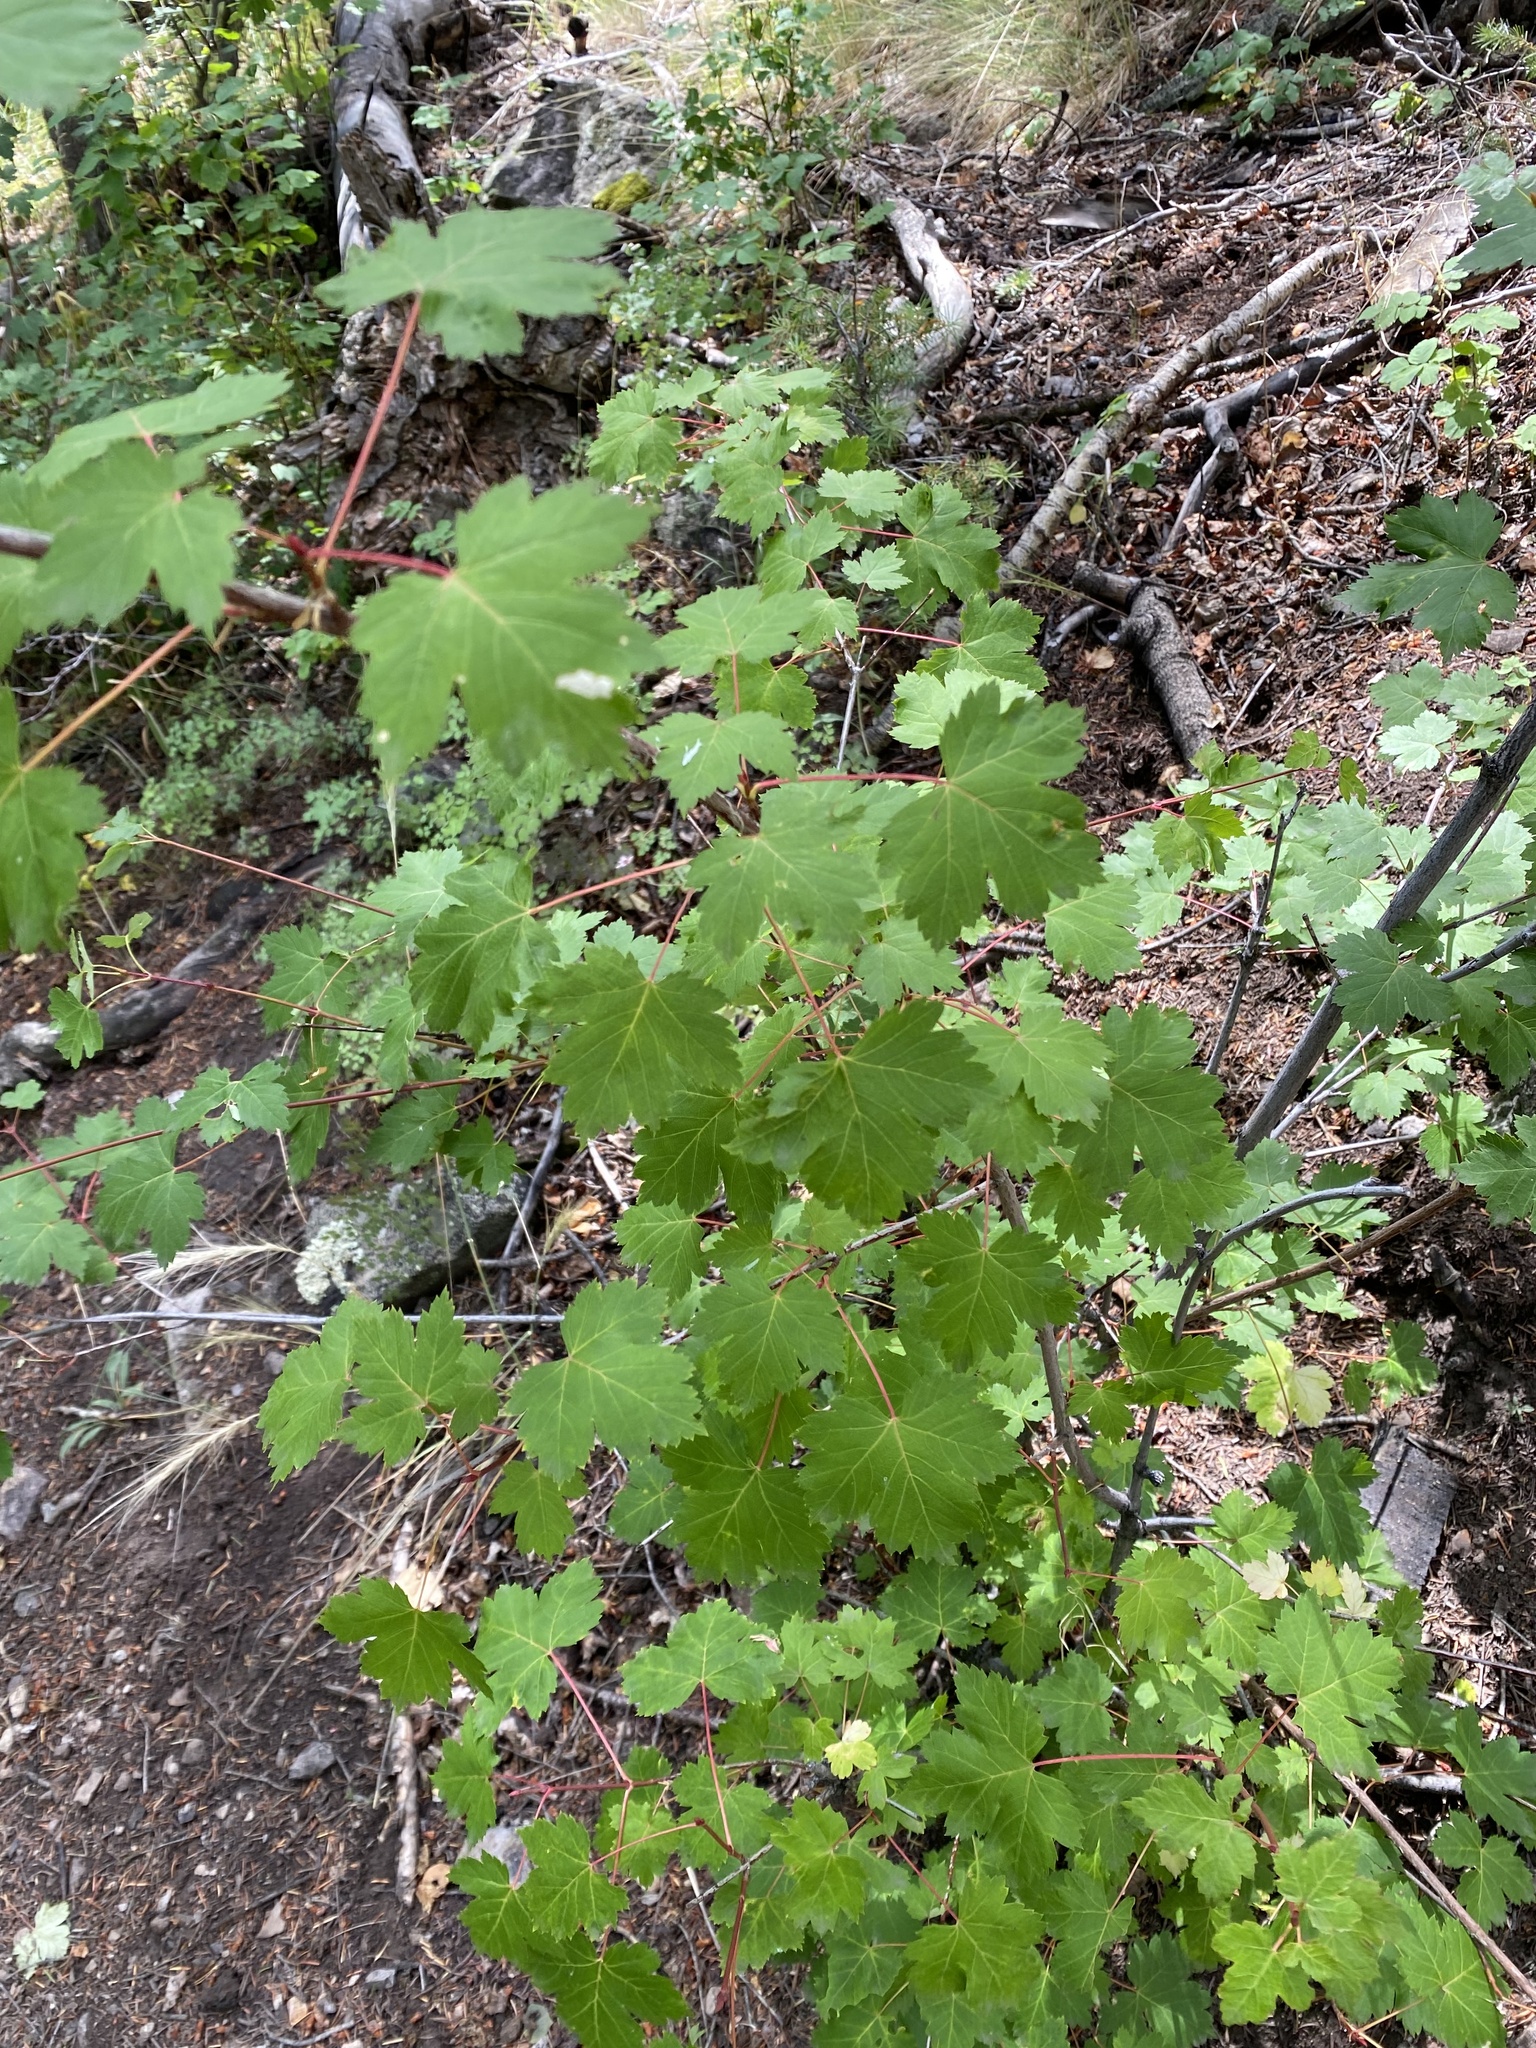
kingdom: Plantae
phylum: Tracheophyta
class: Magnoliopsida
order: Sapindales
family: Sapindaceae
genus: Acer
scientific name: Acer glabrum
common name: Rocky mountain maple
